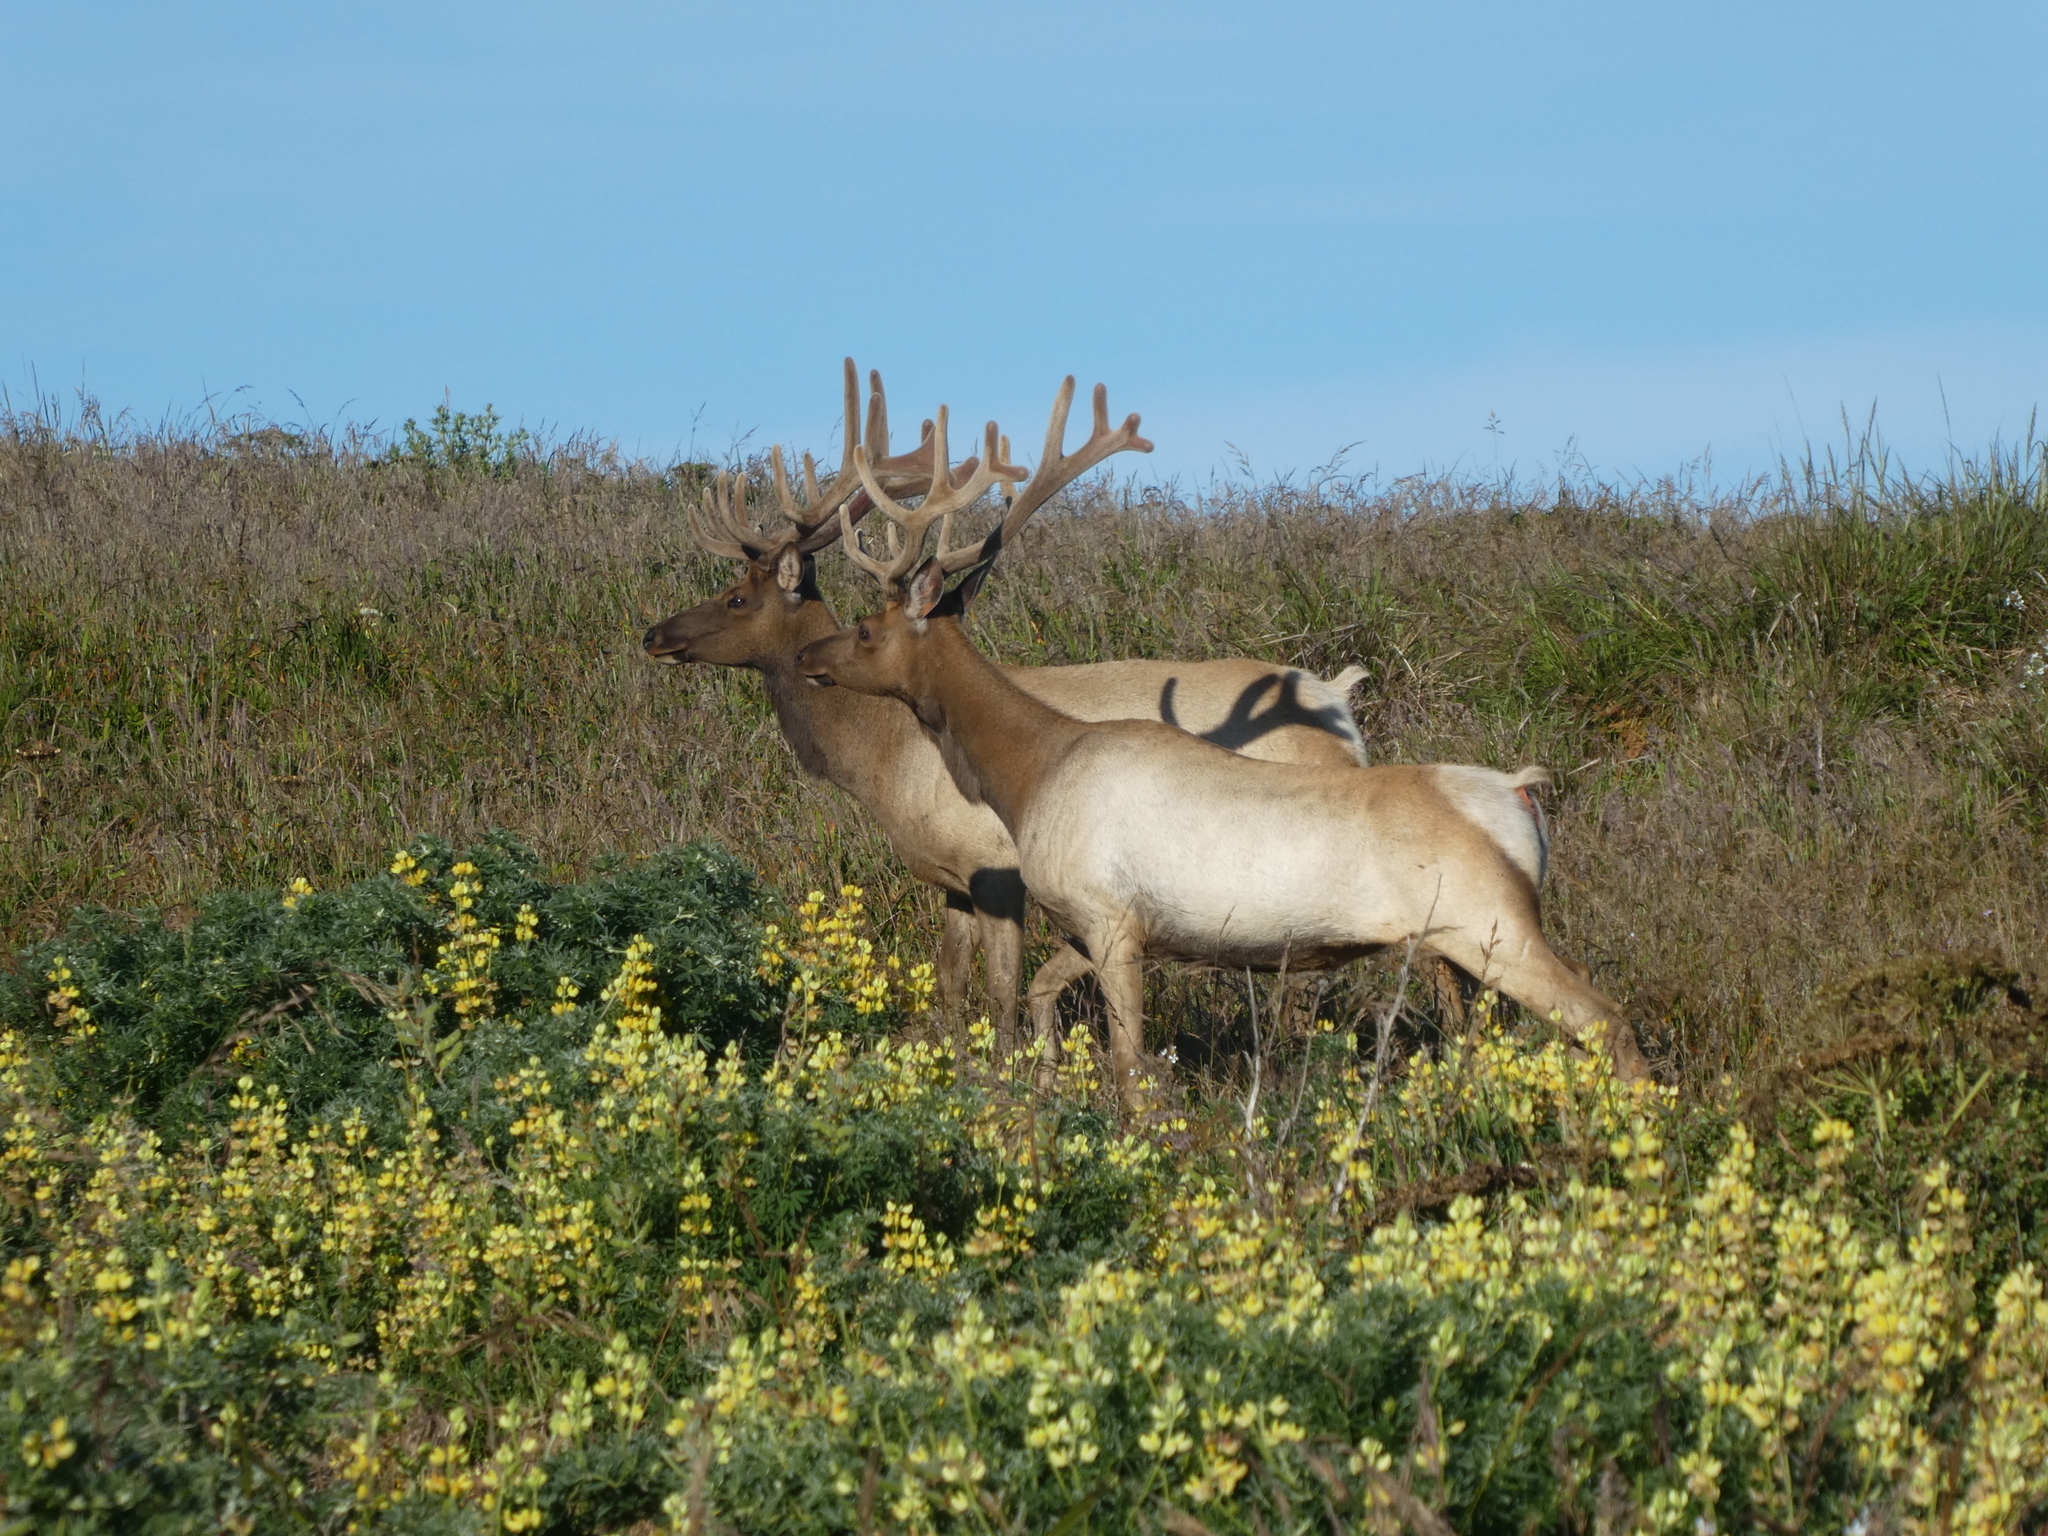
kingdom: Animalia
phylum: Chordata
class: Mammalia
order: Artiodactyla
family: Cervidae
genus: Cervus
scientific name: Cervus elaphus
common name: Red deer
